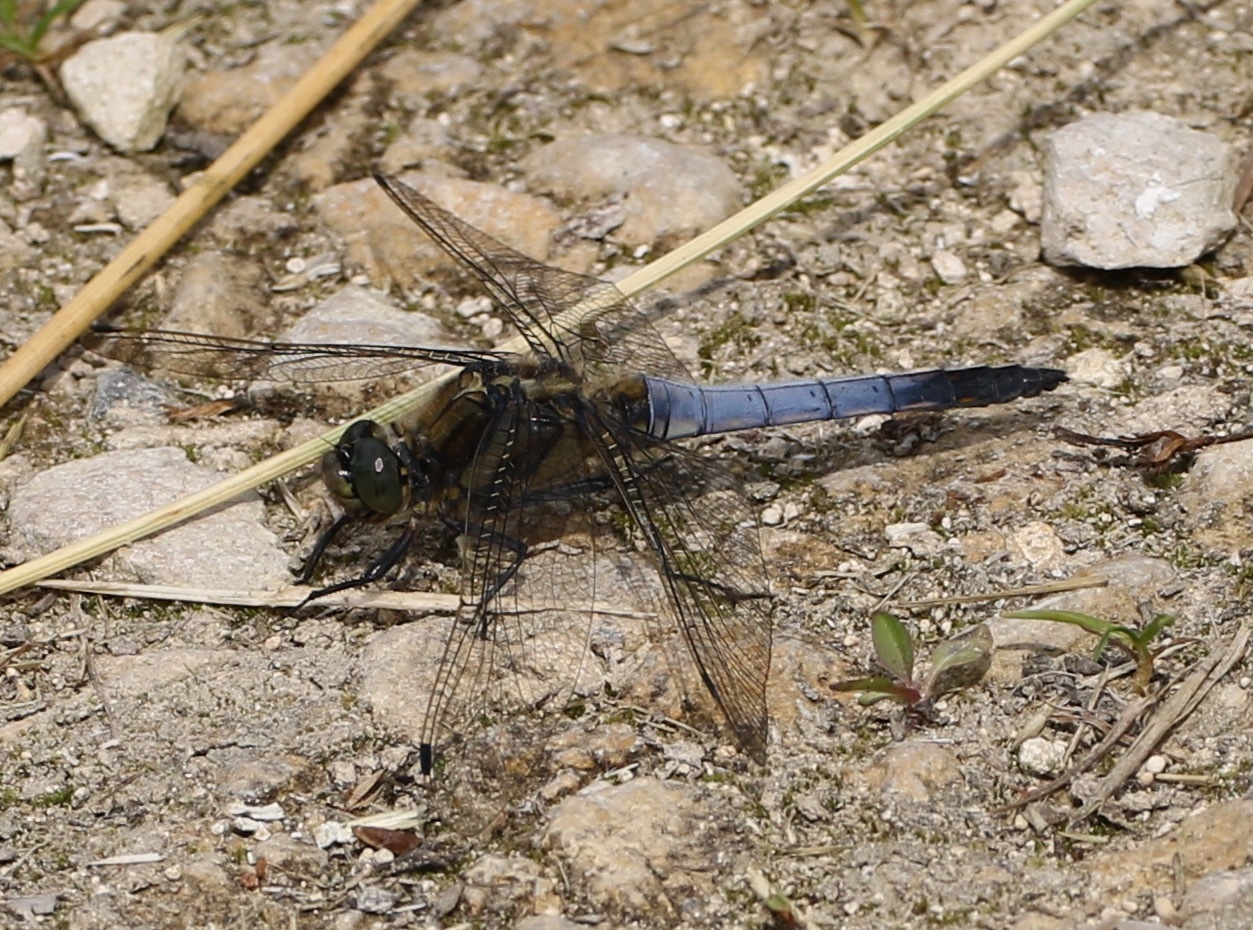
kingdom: Animalia
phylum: Arthropoda
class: Insecta
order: Odonata
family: Libellulidae
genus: Orthetrum
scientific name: Orthetrum cancellatum
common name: Black-tailed skimmer
